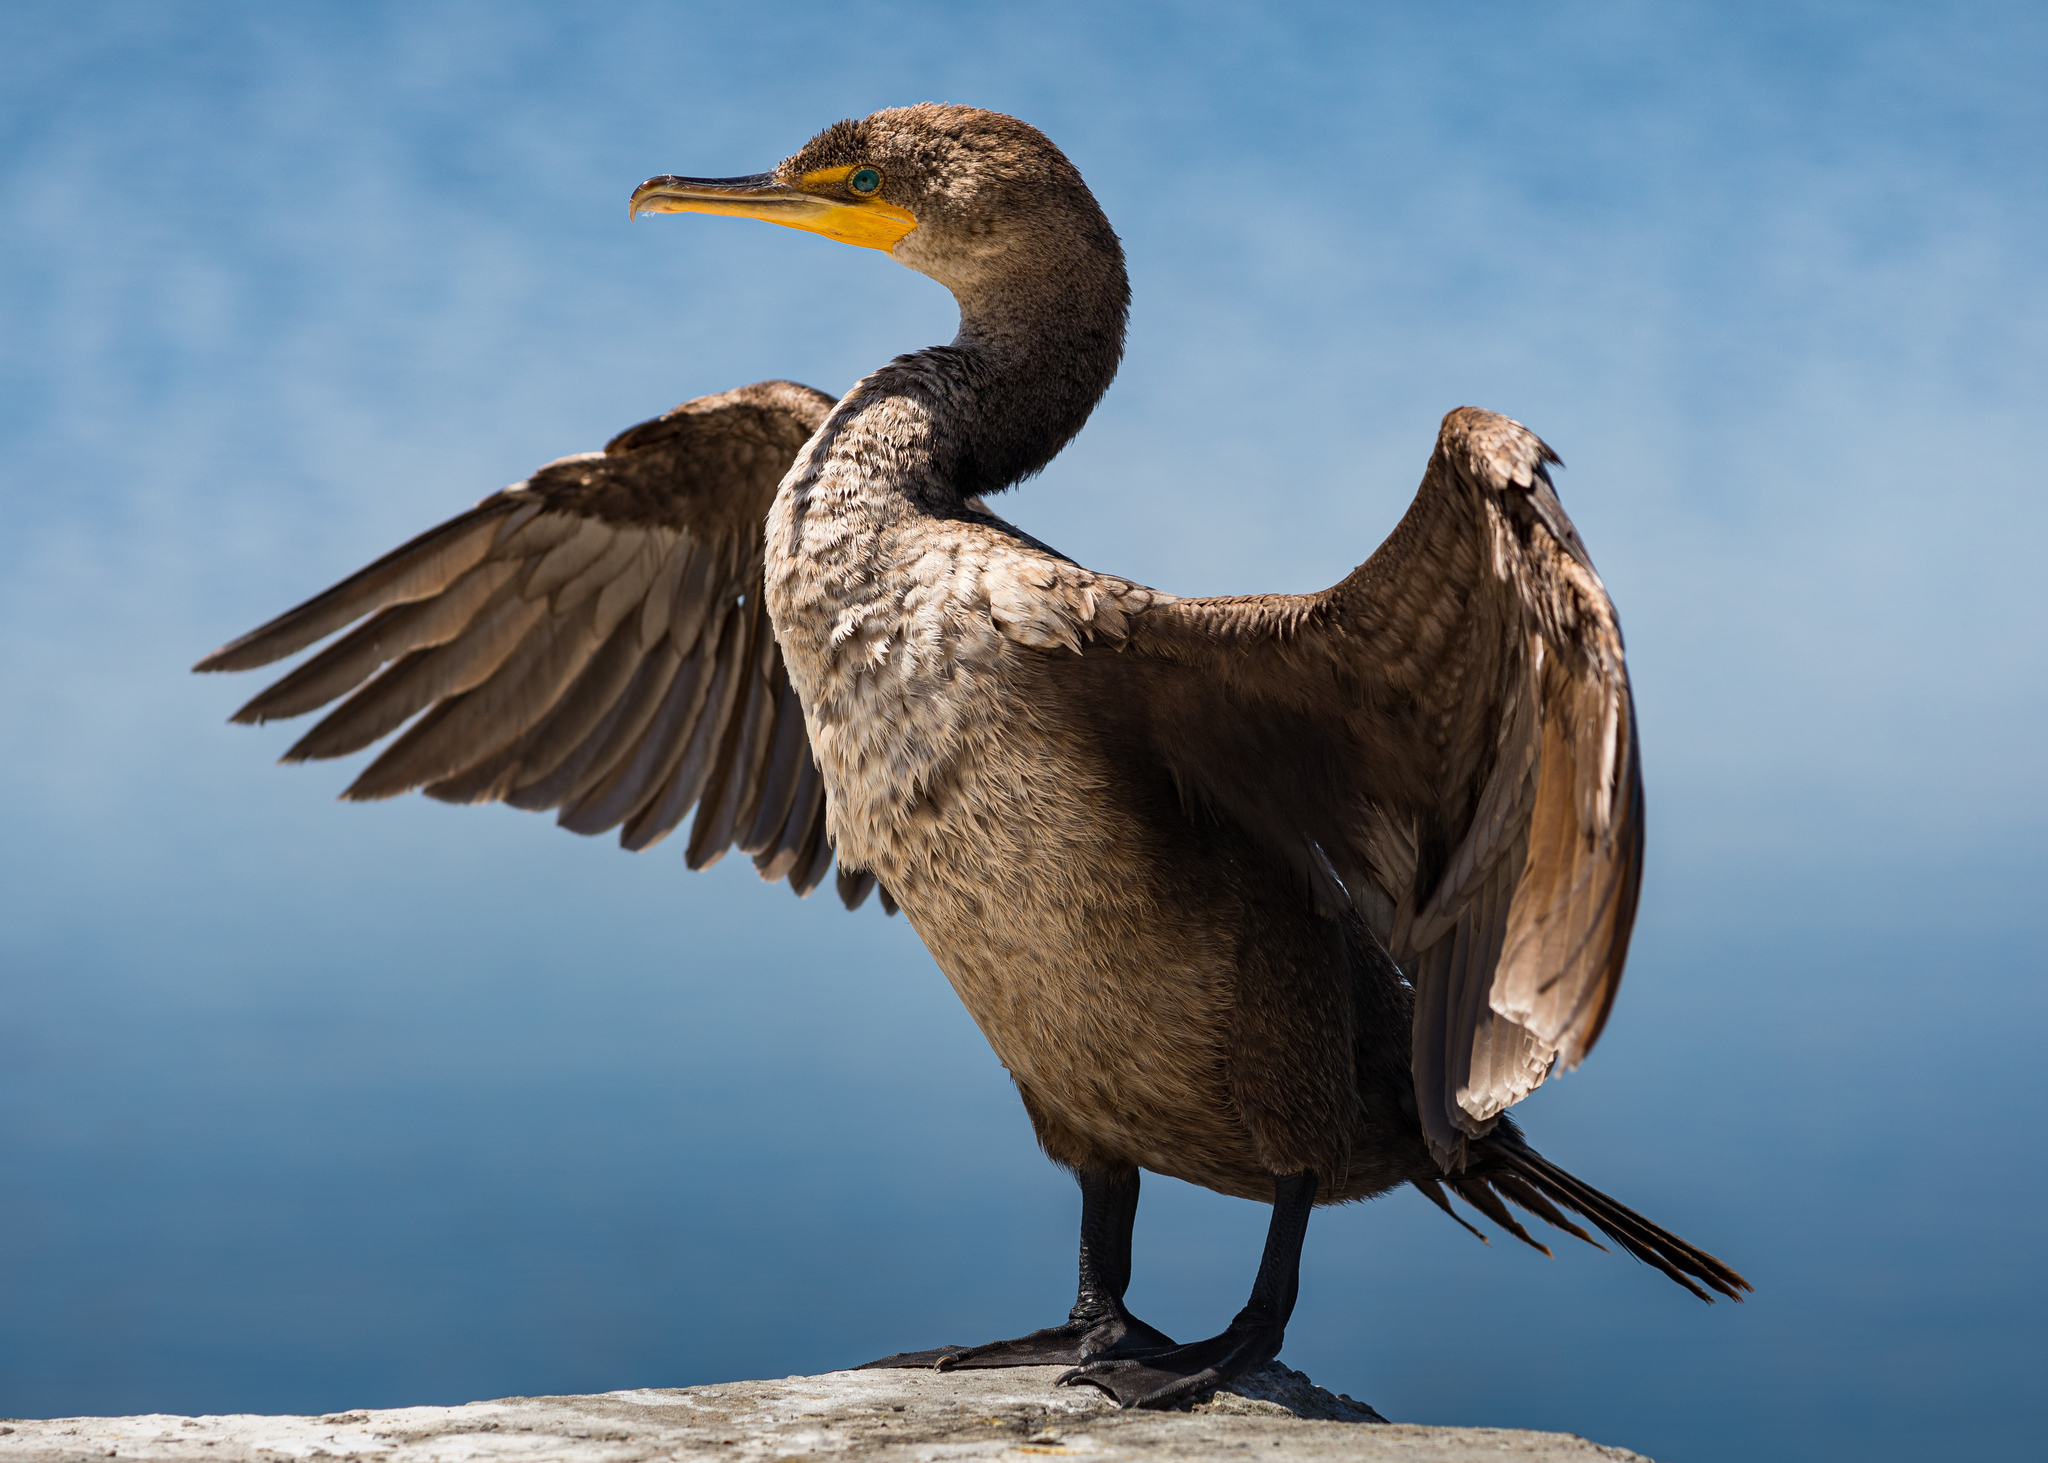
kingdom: Animalia
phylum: Chordata
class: Aves
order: Suliformes
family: Phalacrocoracidae
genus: Phalacrocorax
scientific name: Phalacrocorax auritus
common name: Double-crested cormorant
